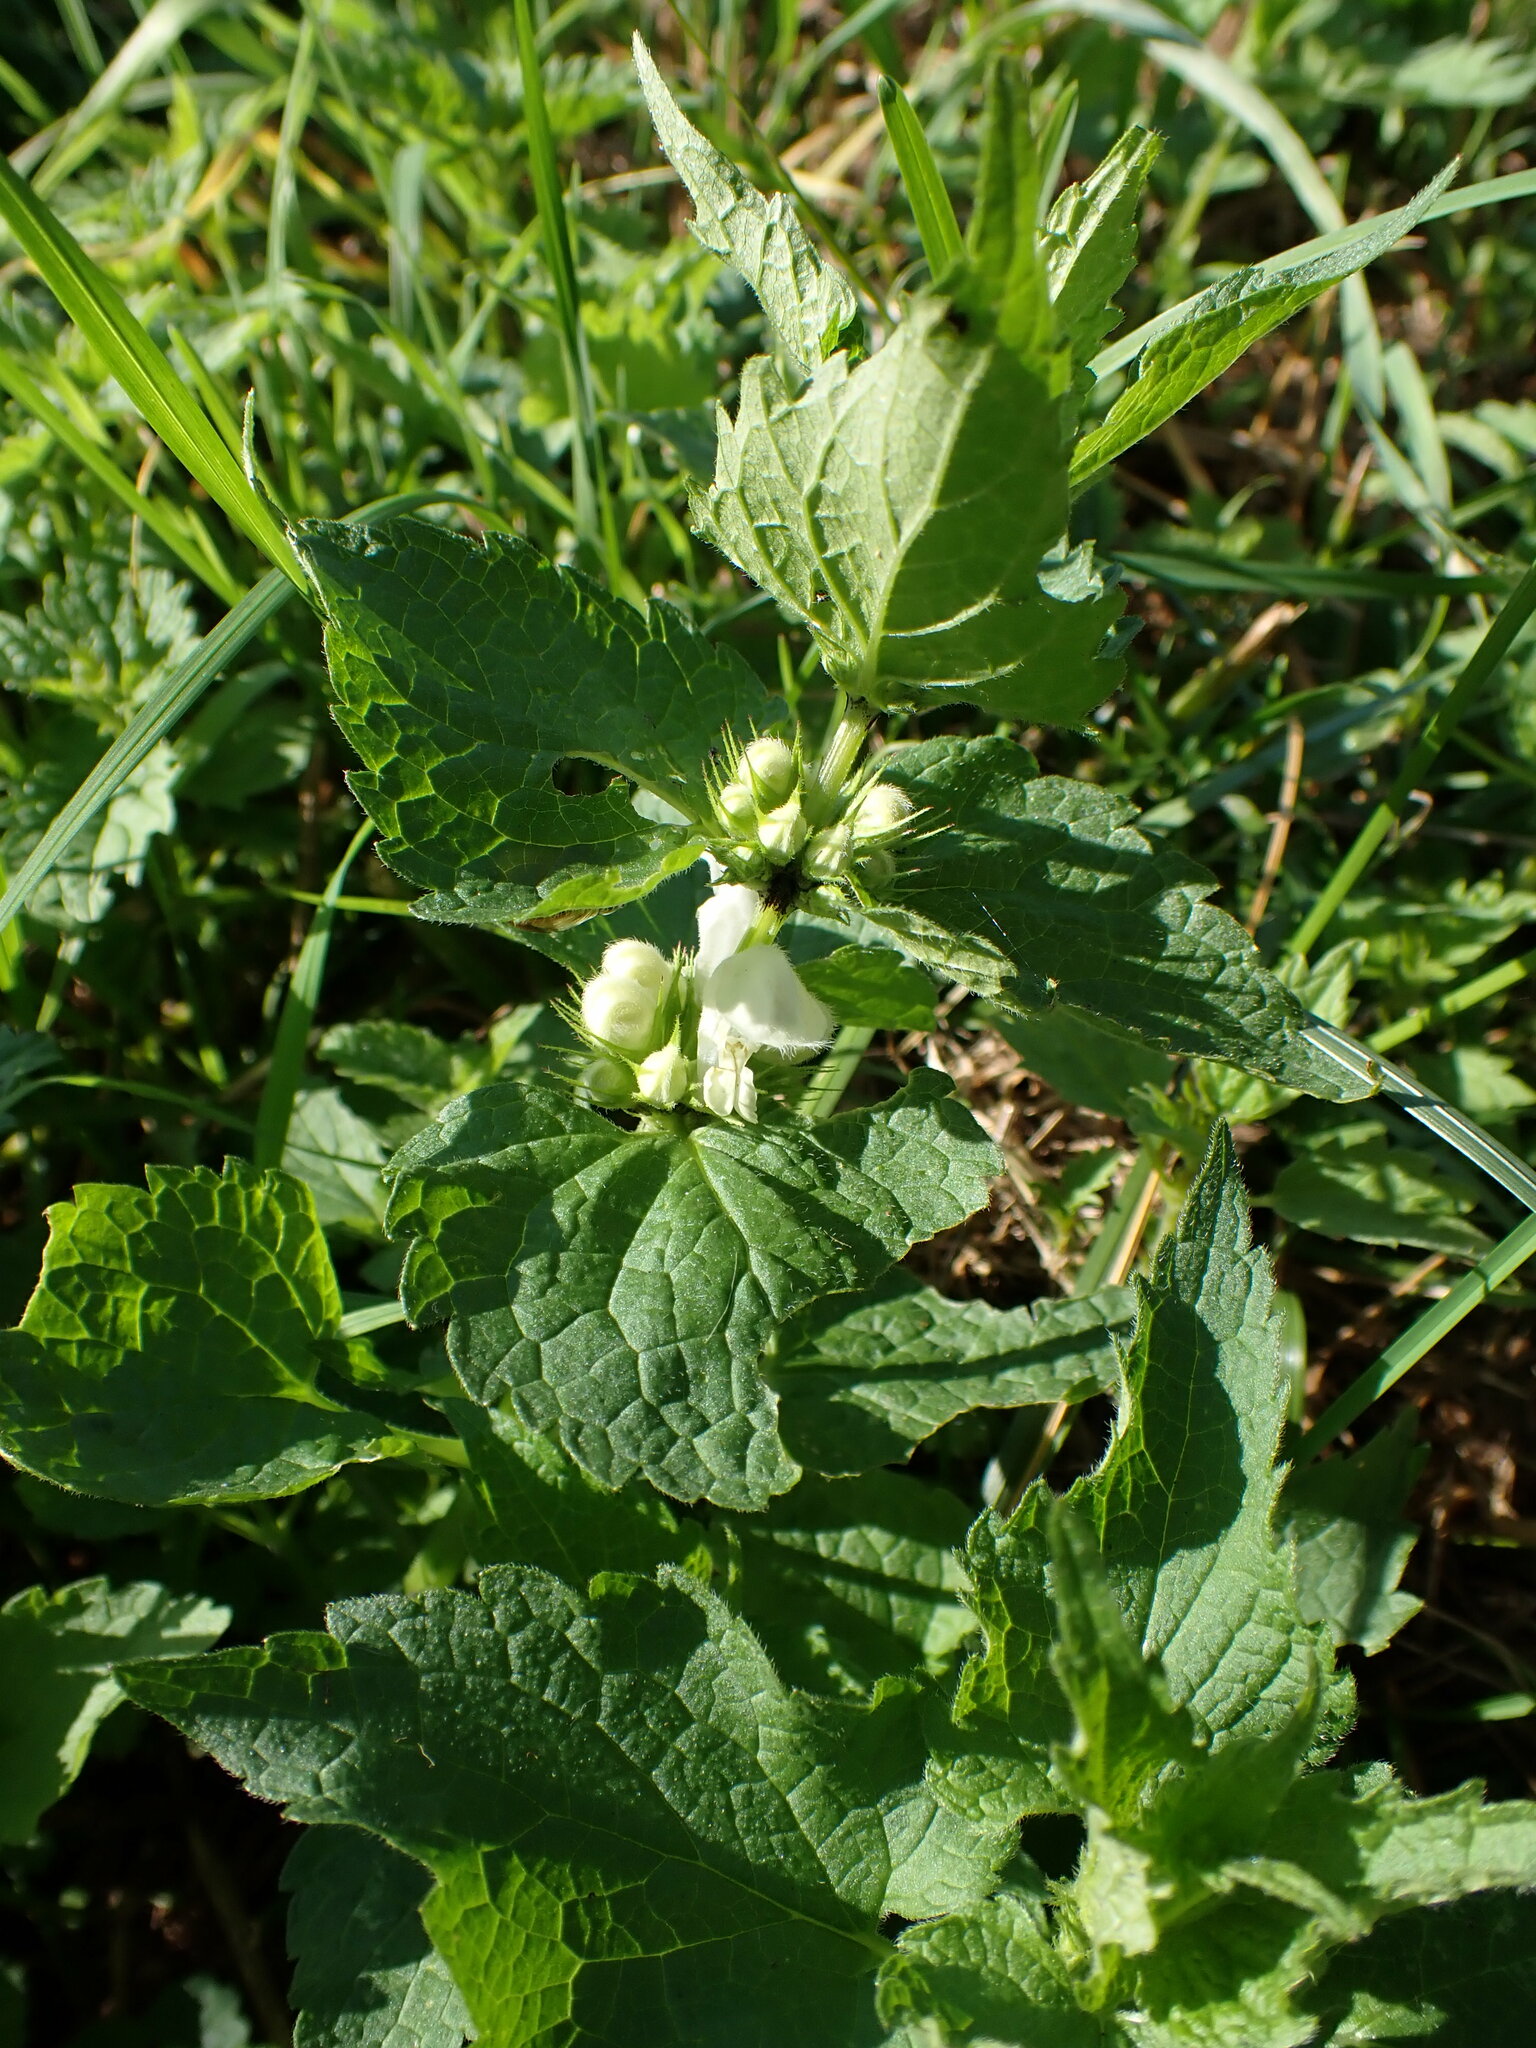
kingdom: Plantae
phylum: Tracheophyta
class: Magnoliopsida
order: Lamiales
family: Lamiaceae
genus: Lamium
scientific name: Lamium album
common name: White dead-nettle
